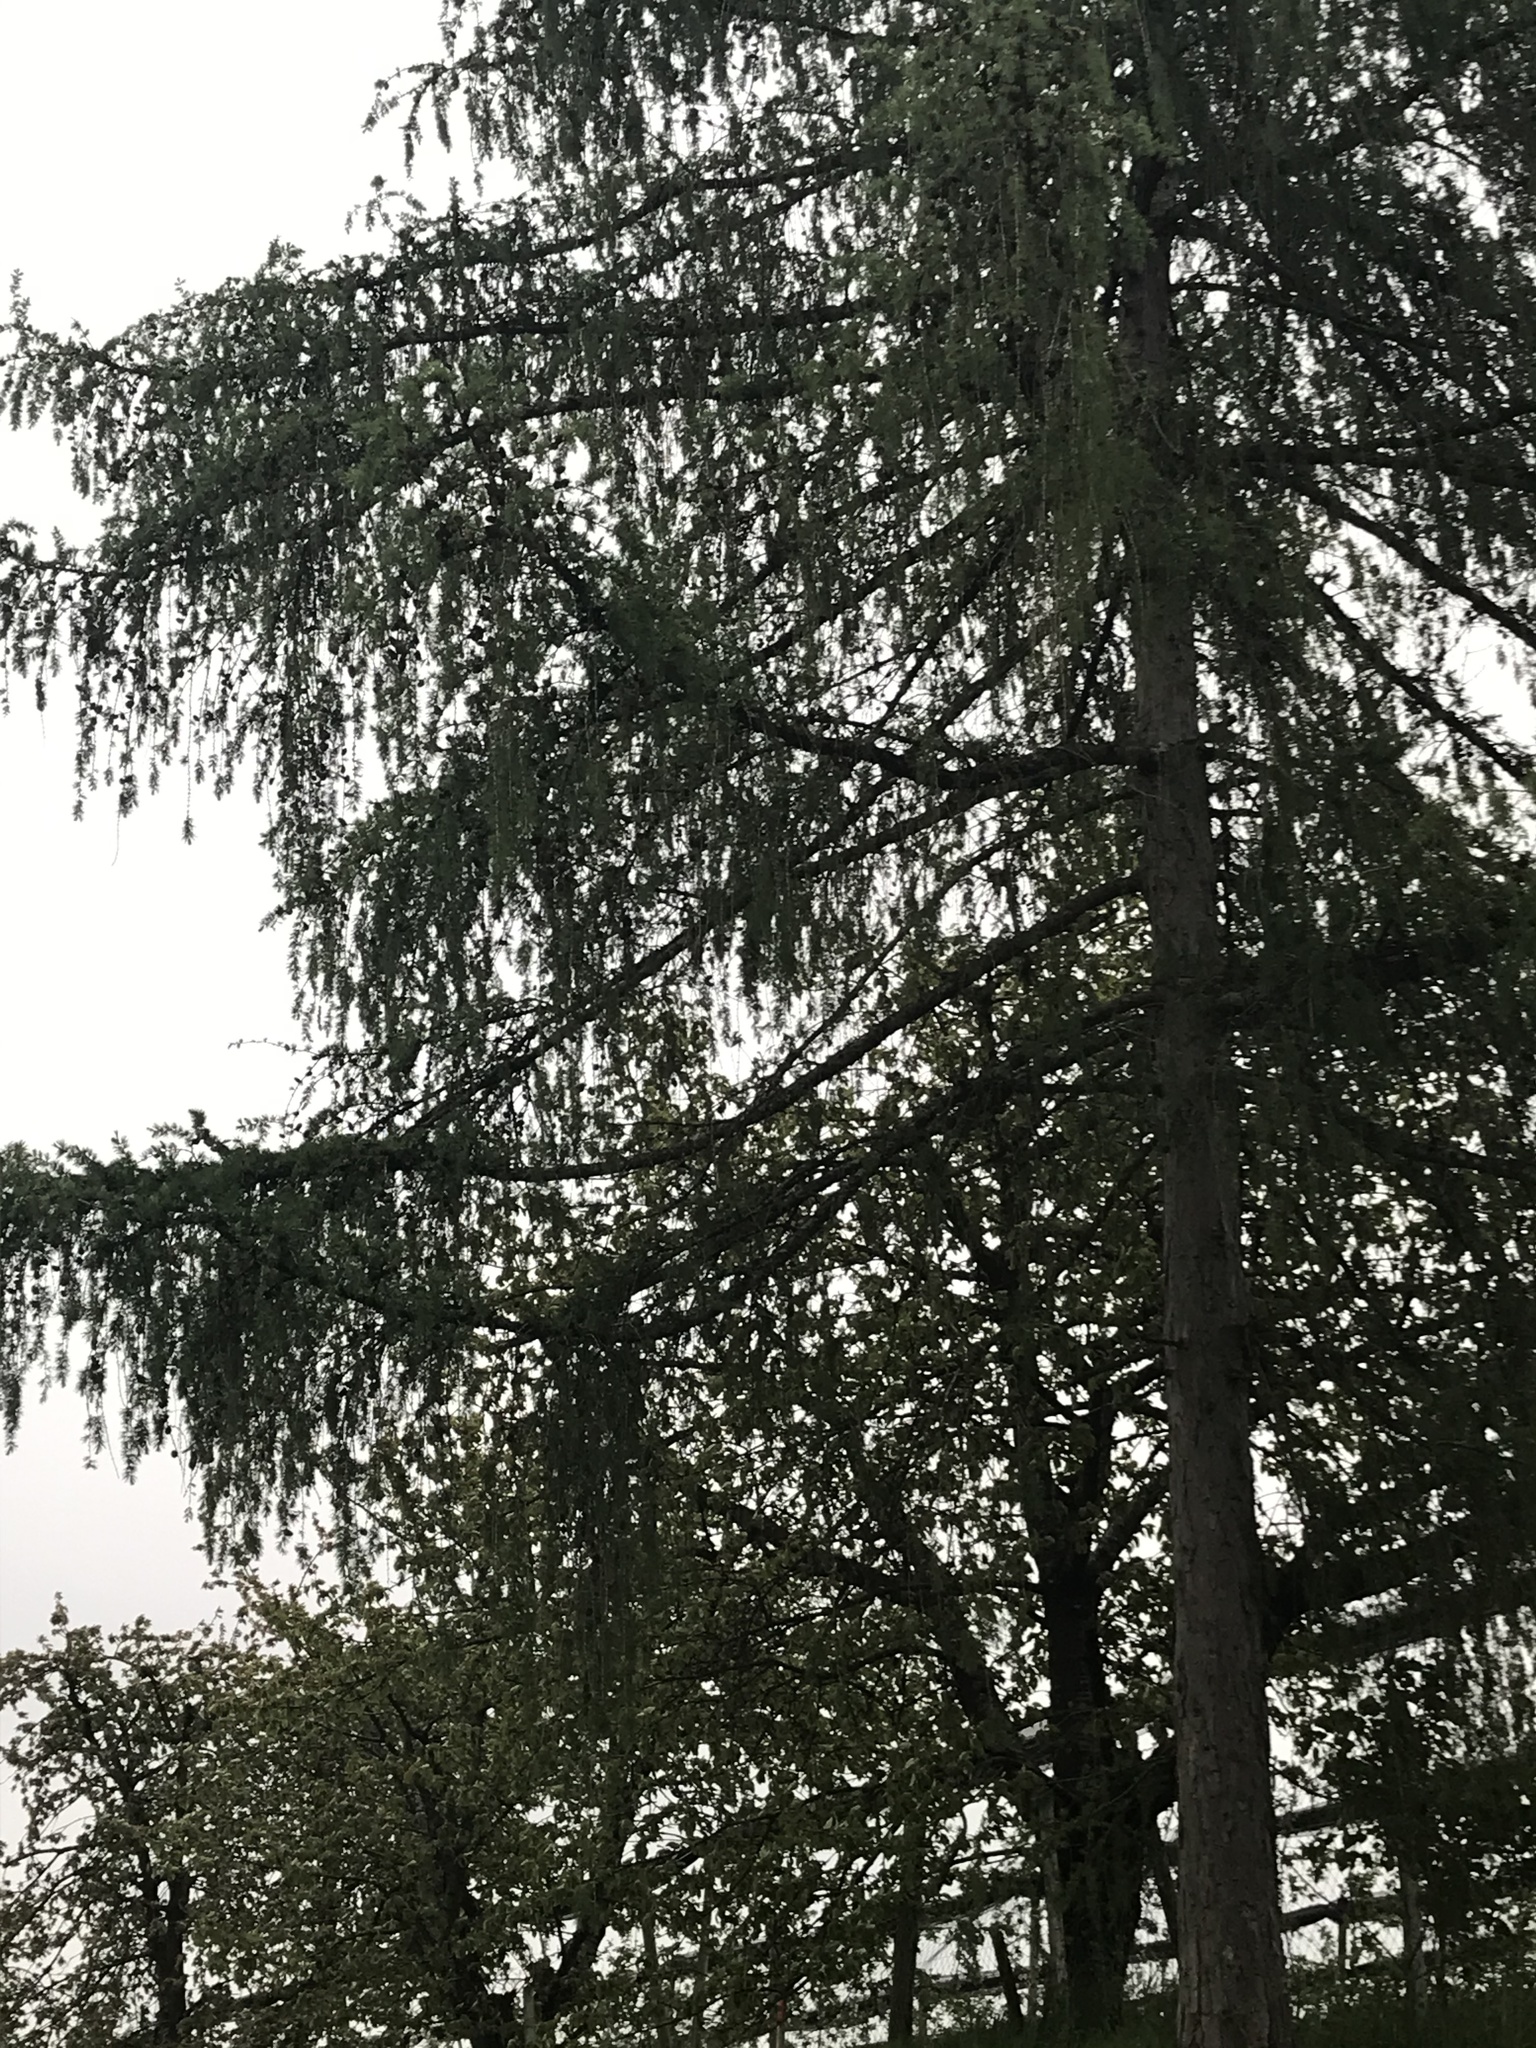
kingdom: Plantae
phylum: Tracheophyta
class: Pinopsida
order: Pinales
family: Pinaceae
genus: Larix
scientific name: Larix decidua
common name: European larch
